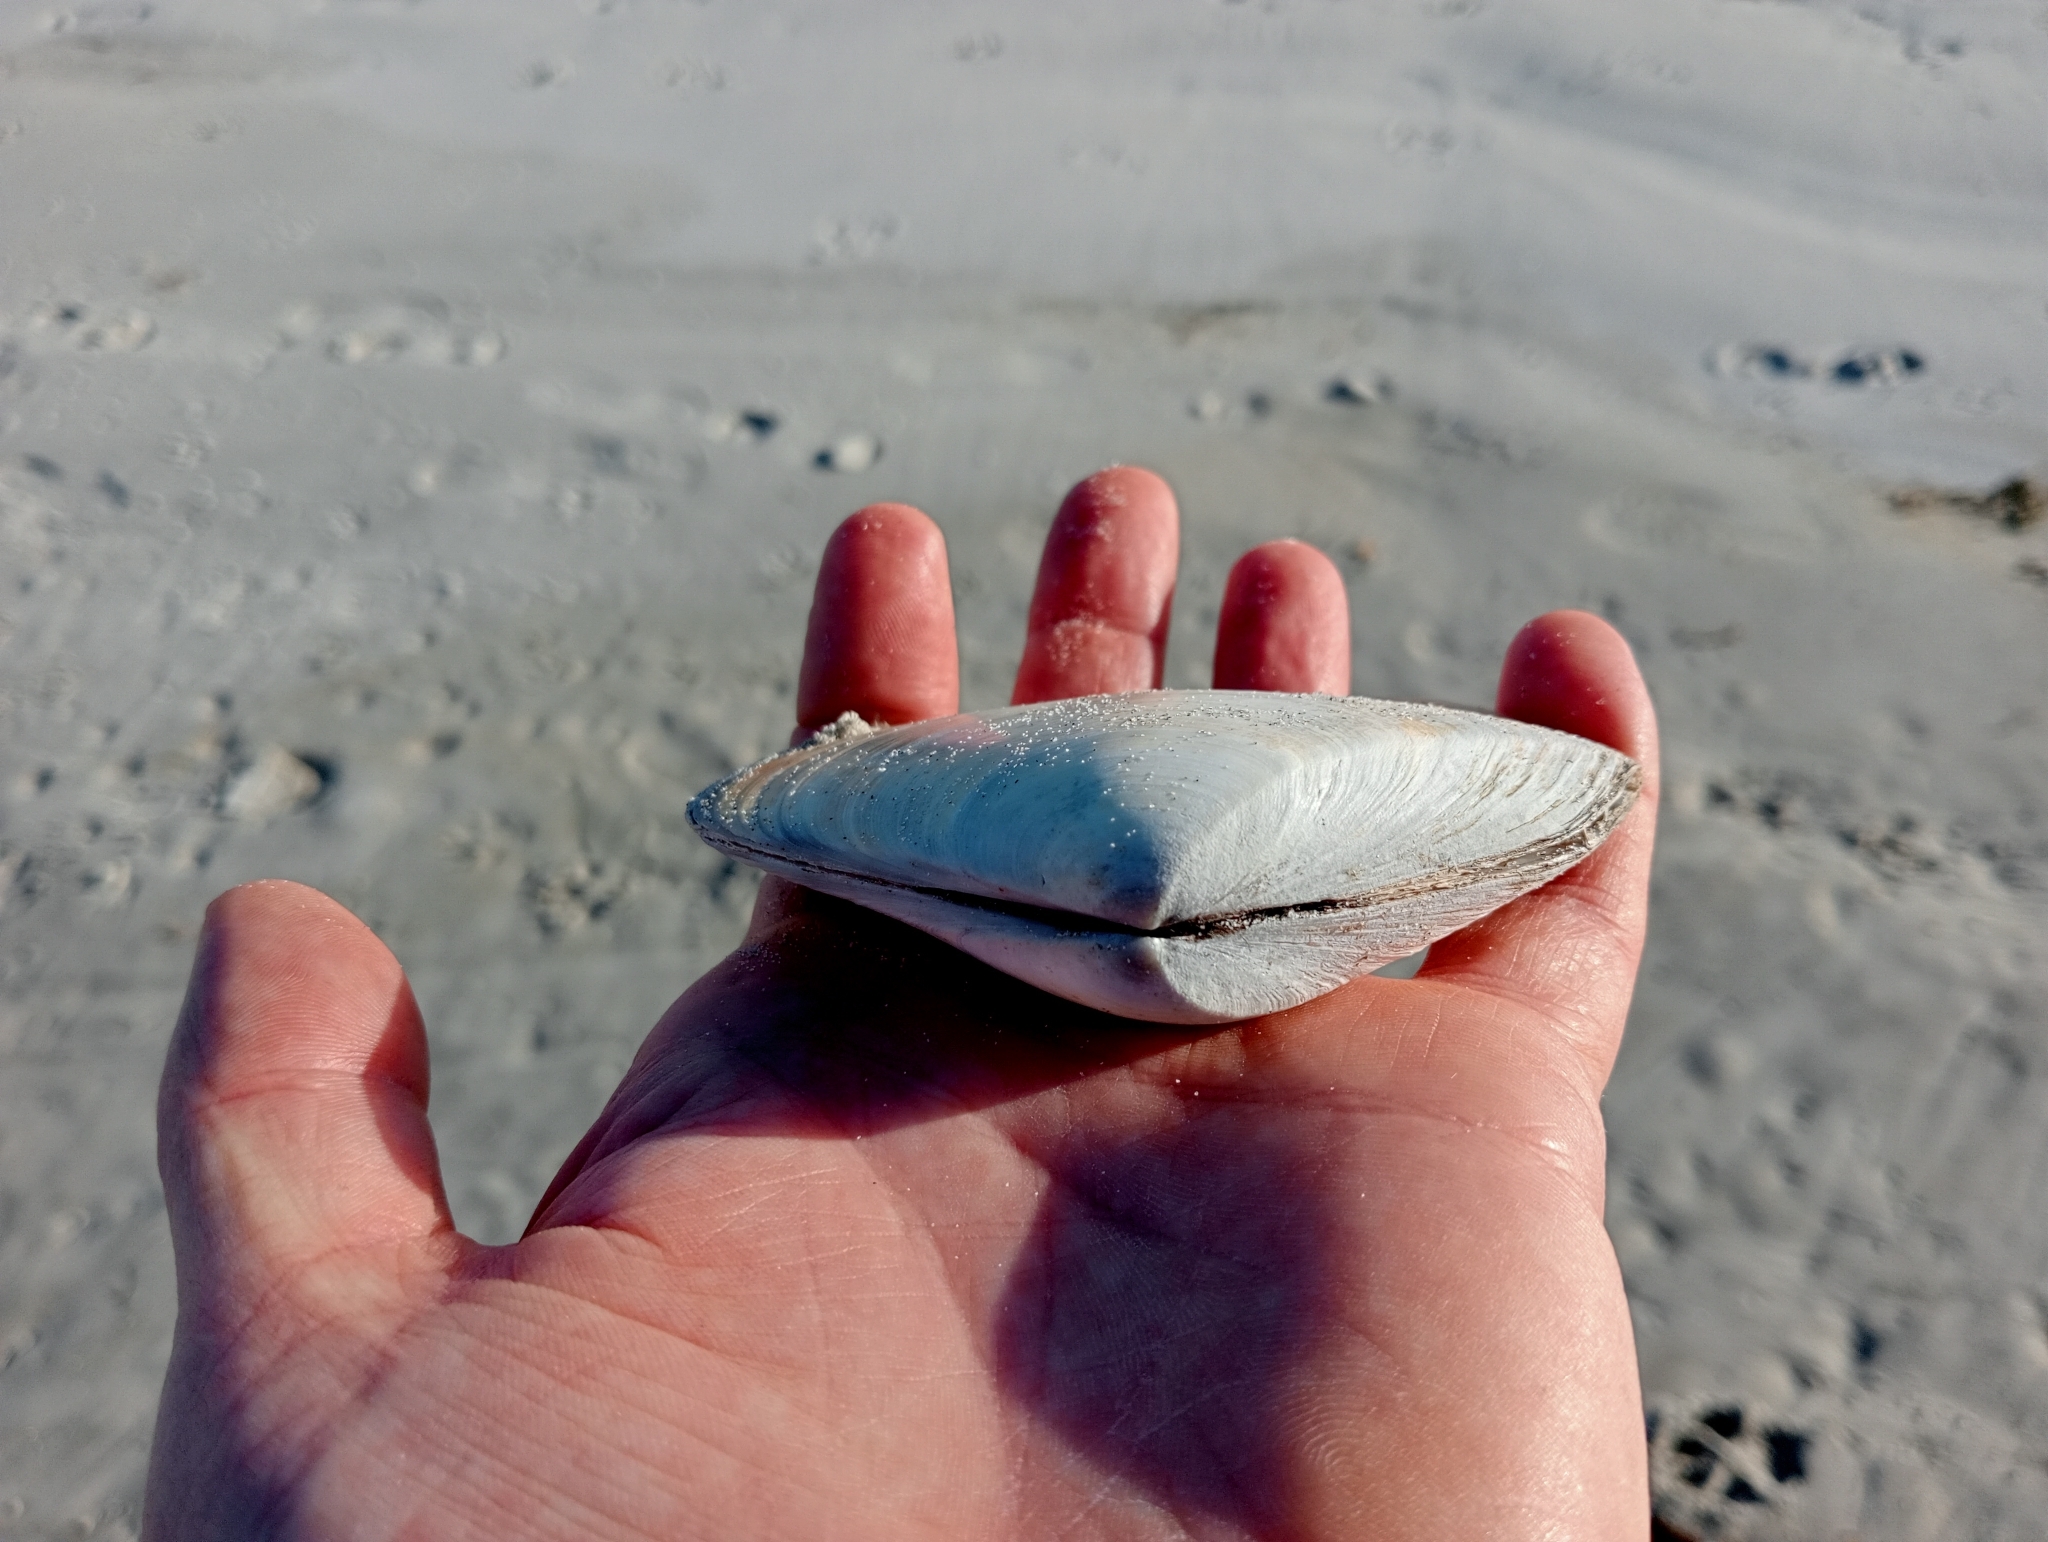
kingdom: Animalia
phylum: Mollusca
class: Bivalvia
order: Venerida
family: Mesodesmatidae
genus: Paphies
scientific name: Paphies donacina
